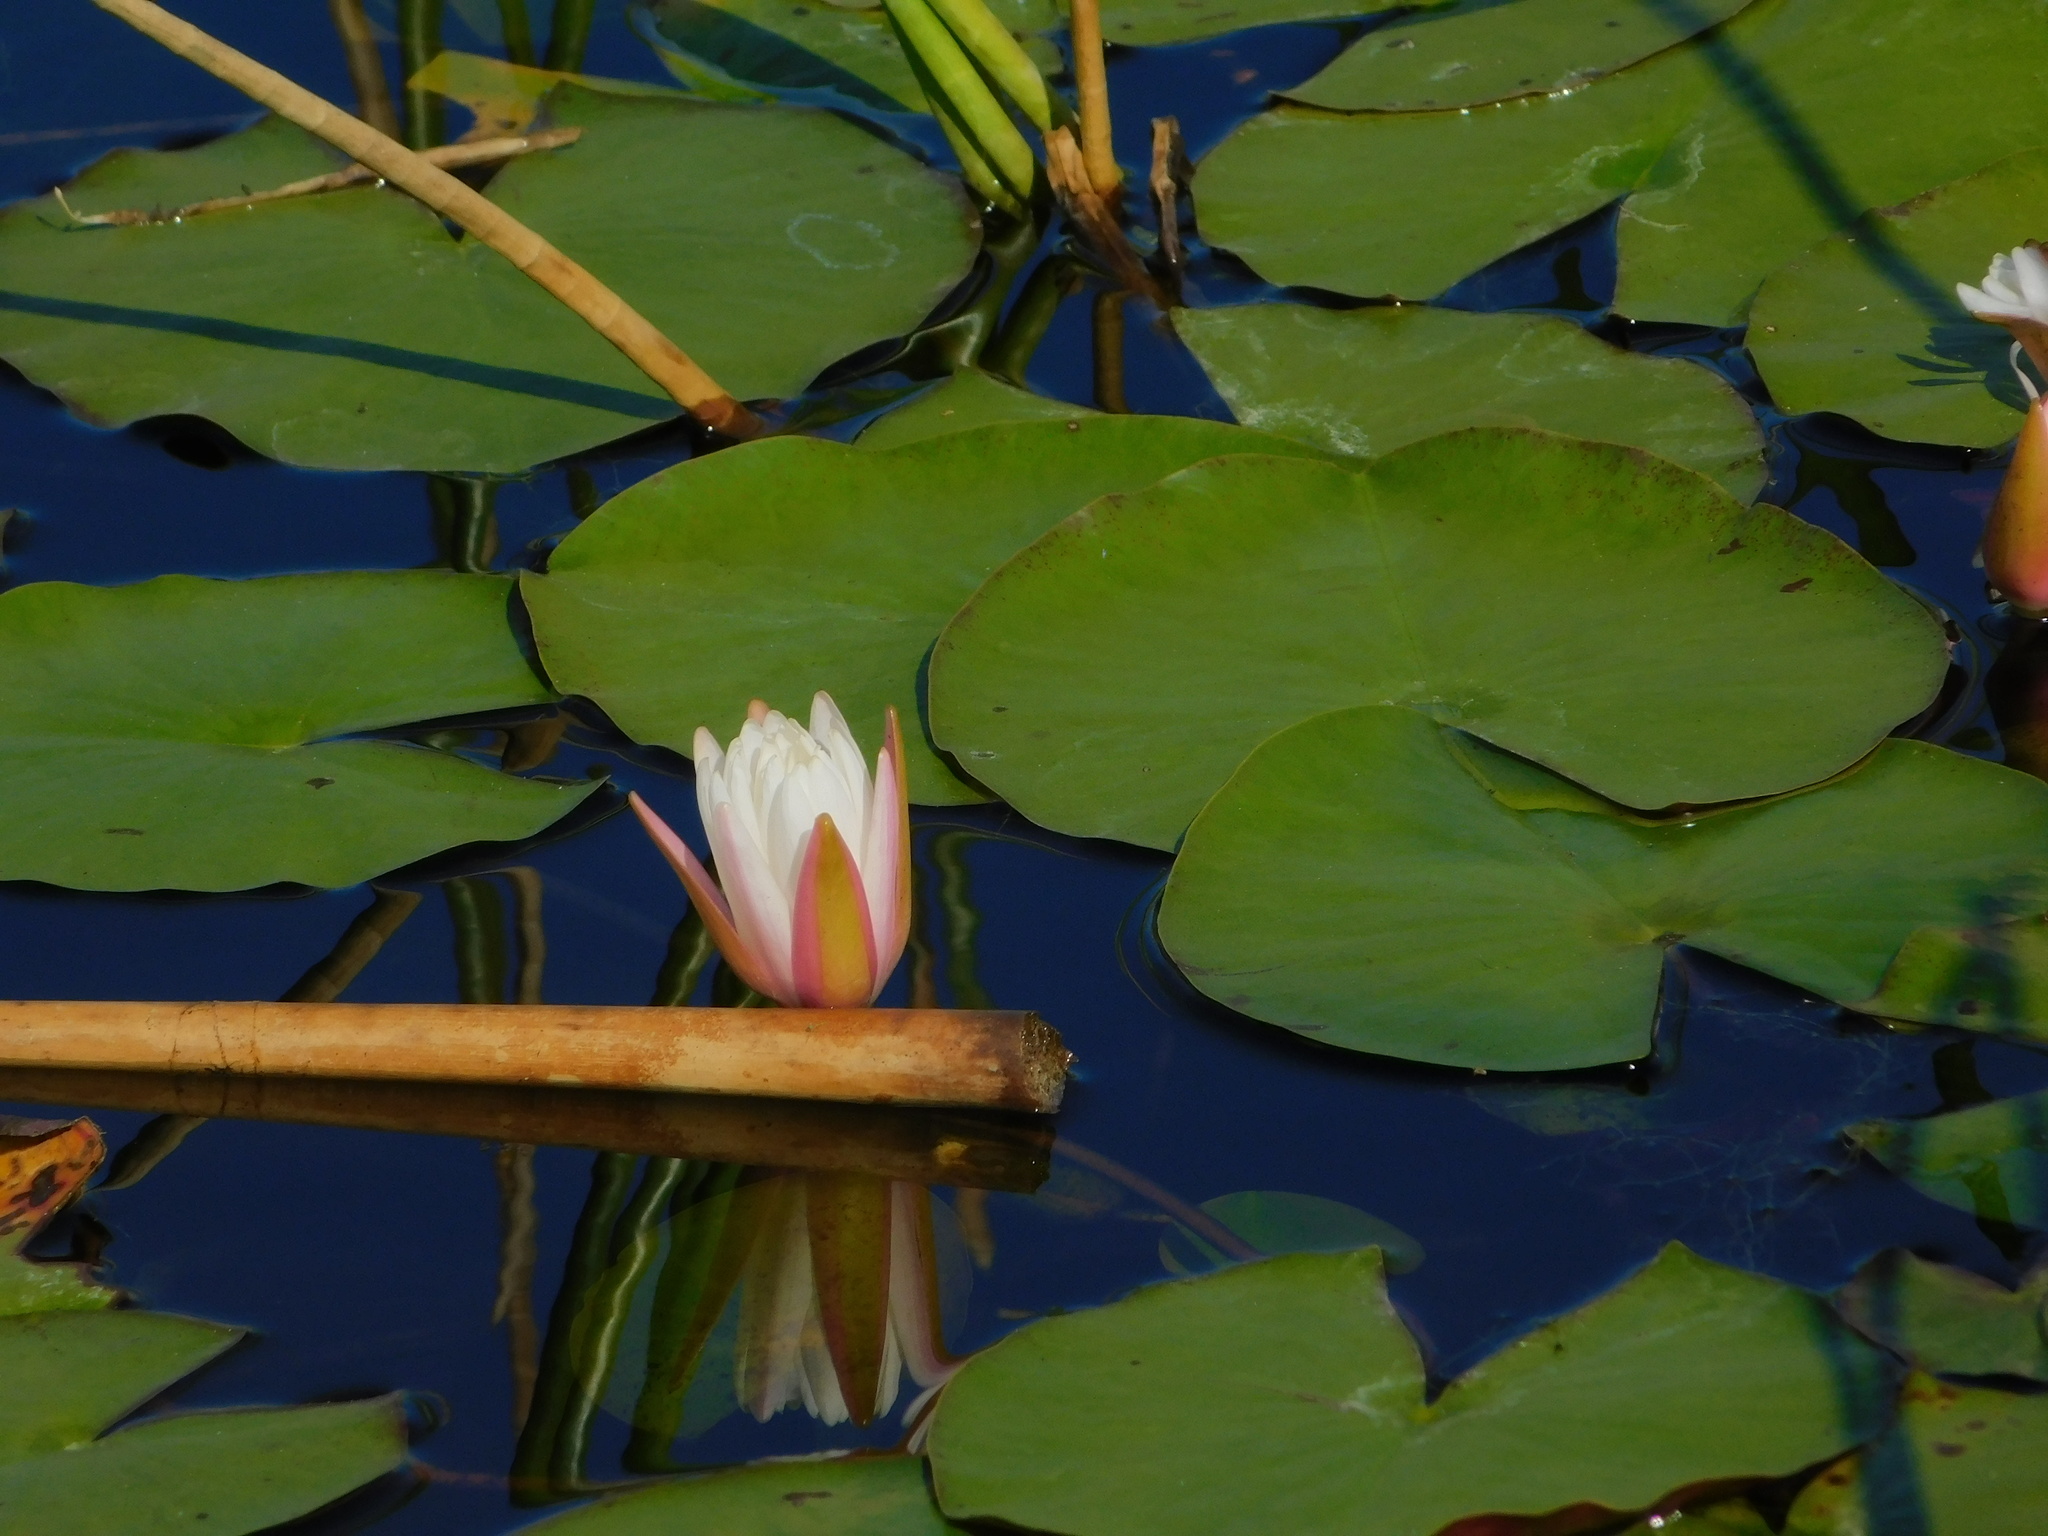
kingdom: Plantae
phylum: Tracheophyta
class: Magnoliopsida
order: Nymphaeales
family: Nymphaeaceae
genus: Nymphaea
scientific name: Nymphaea odorata
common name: Fragrant water-lily
